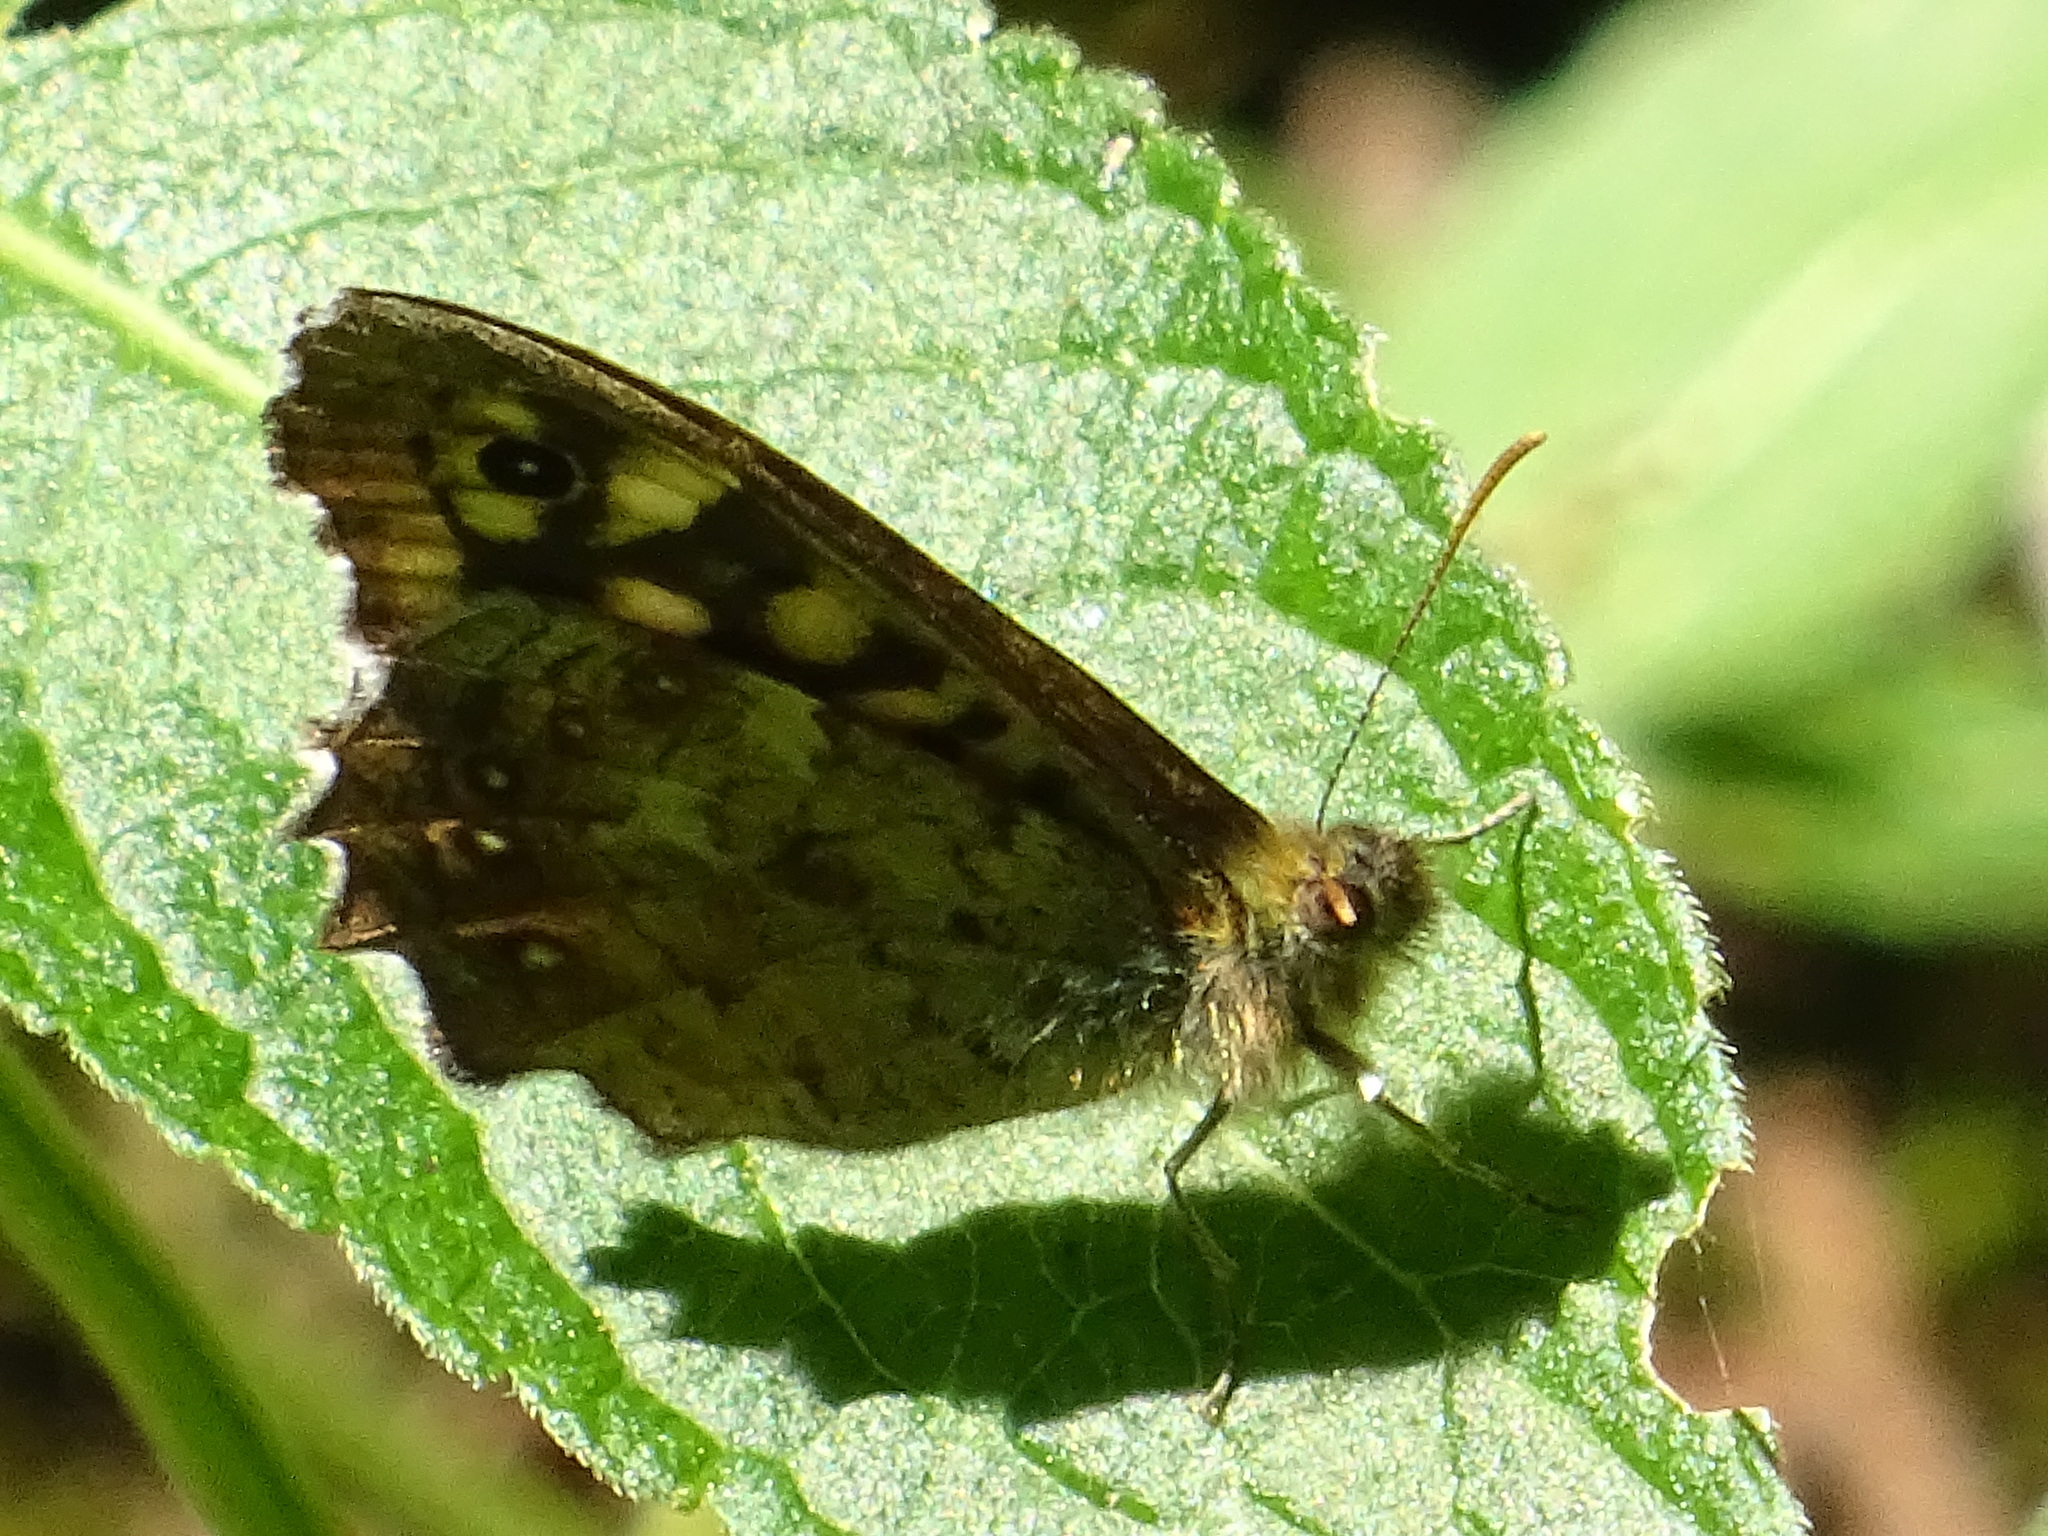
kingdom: Animalia
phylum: Arthropoda
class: Insecta
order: Lepidoptera
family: Nymphalidae
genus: Pararge
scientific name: Pararge aegeria
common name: Speckled wood
